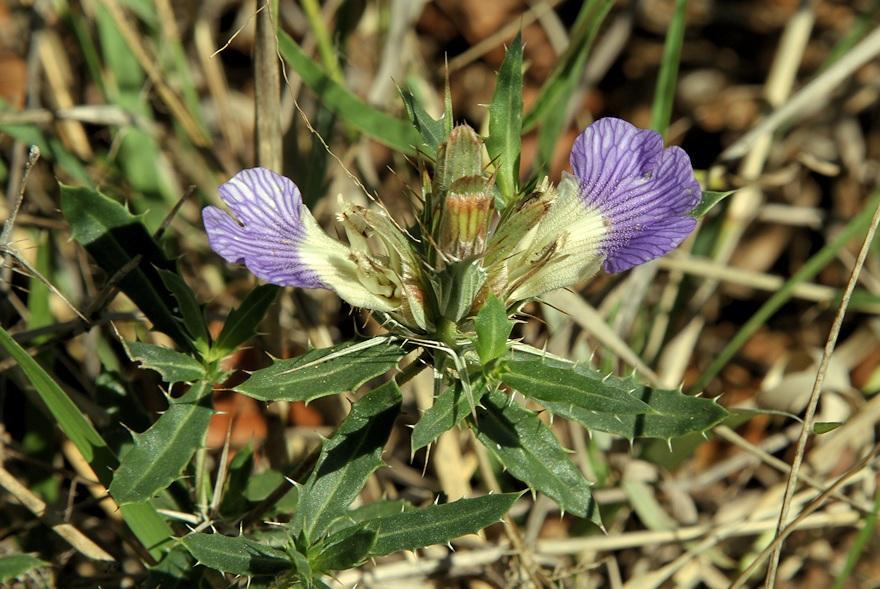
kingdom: Plantae
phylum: Tracheophyta
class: Magnoliopsida
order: Lamiales
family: Acanthaceae
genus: Blepharis
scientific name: Blepharis aspera
